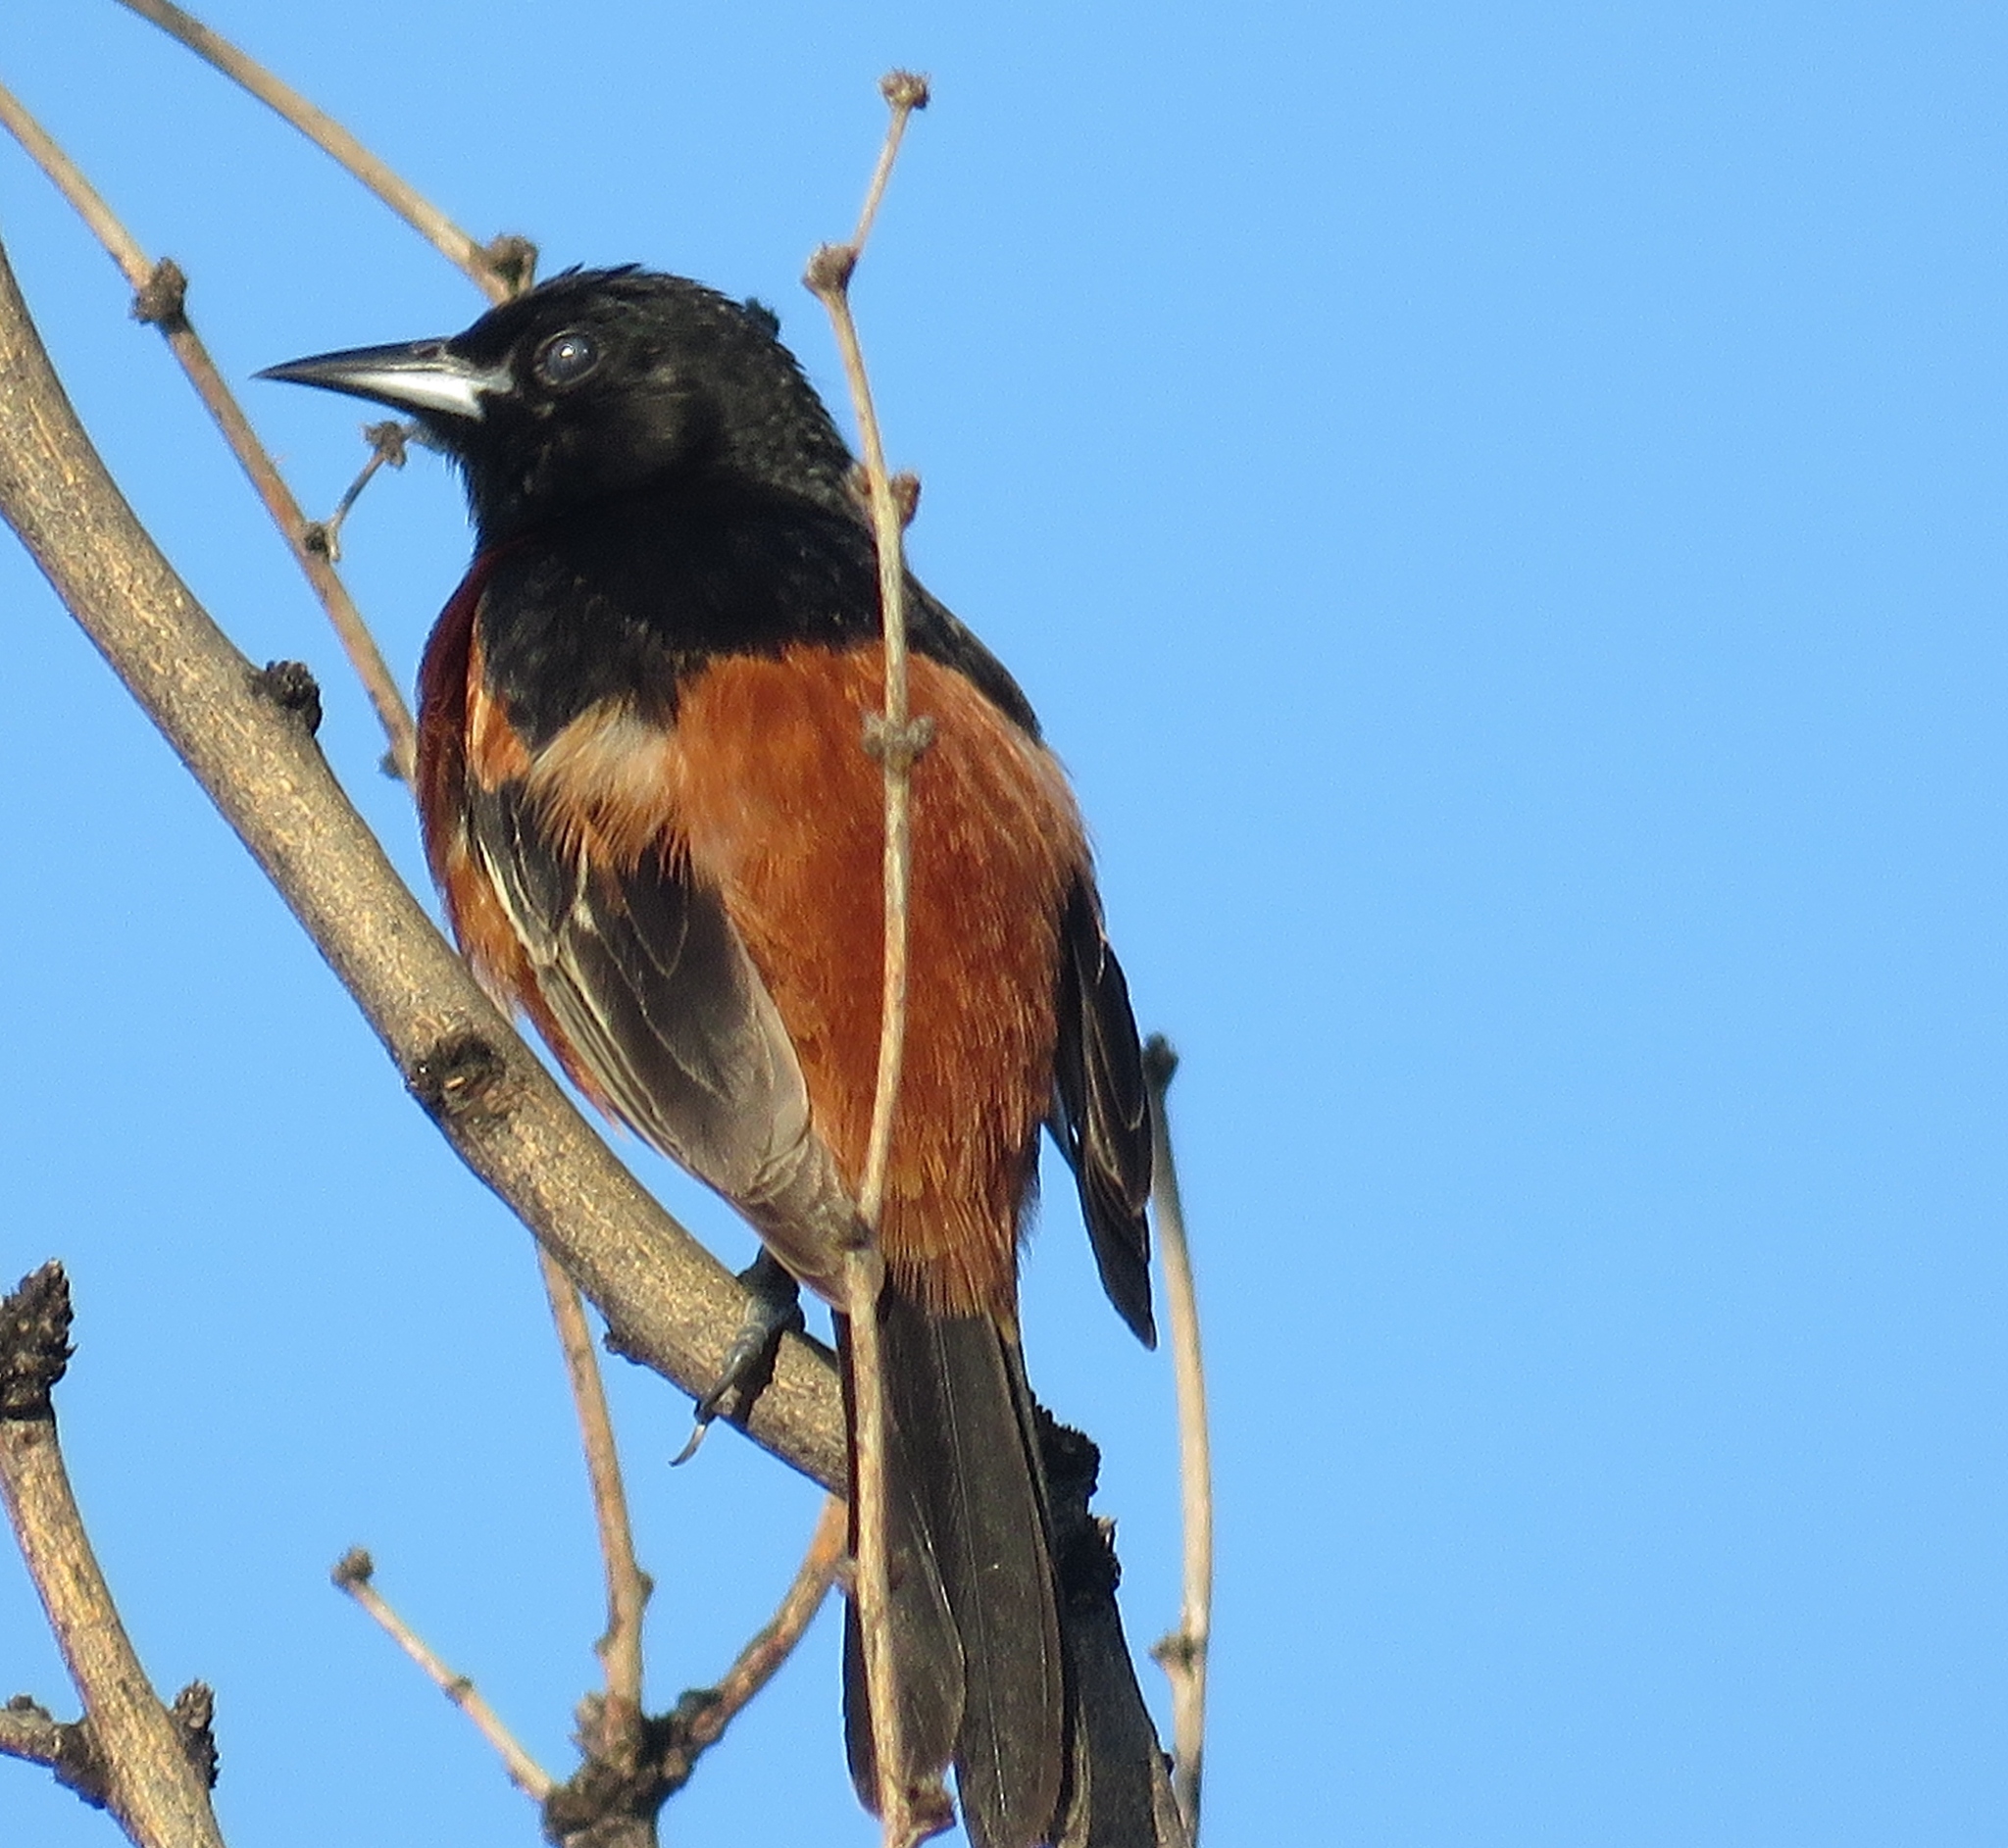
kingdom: Animalia
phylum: Chordata
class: Aves
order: Passeriformes
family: Icteridae
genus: Icterus
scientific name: Icterus spurius
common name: Orchard oriole
